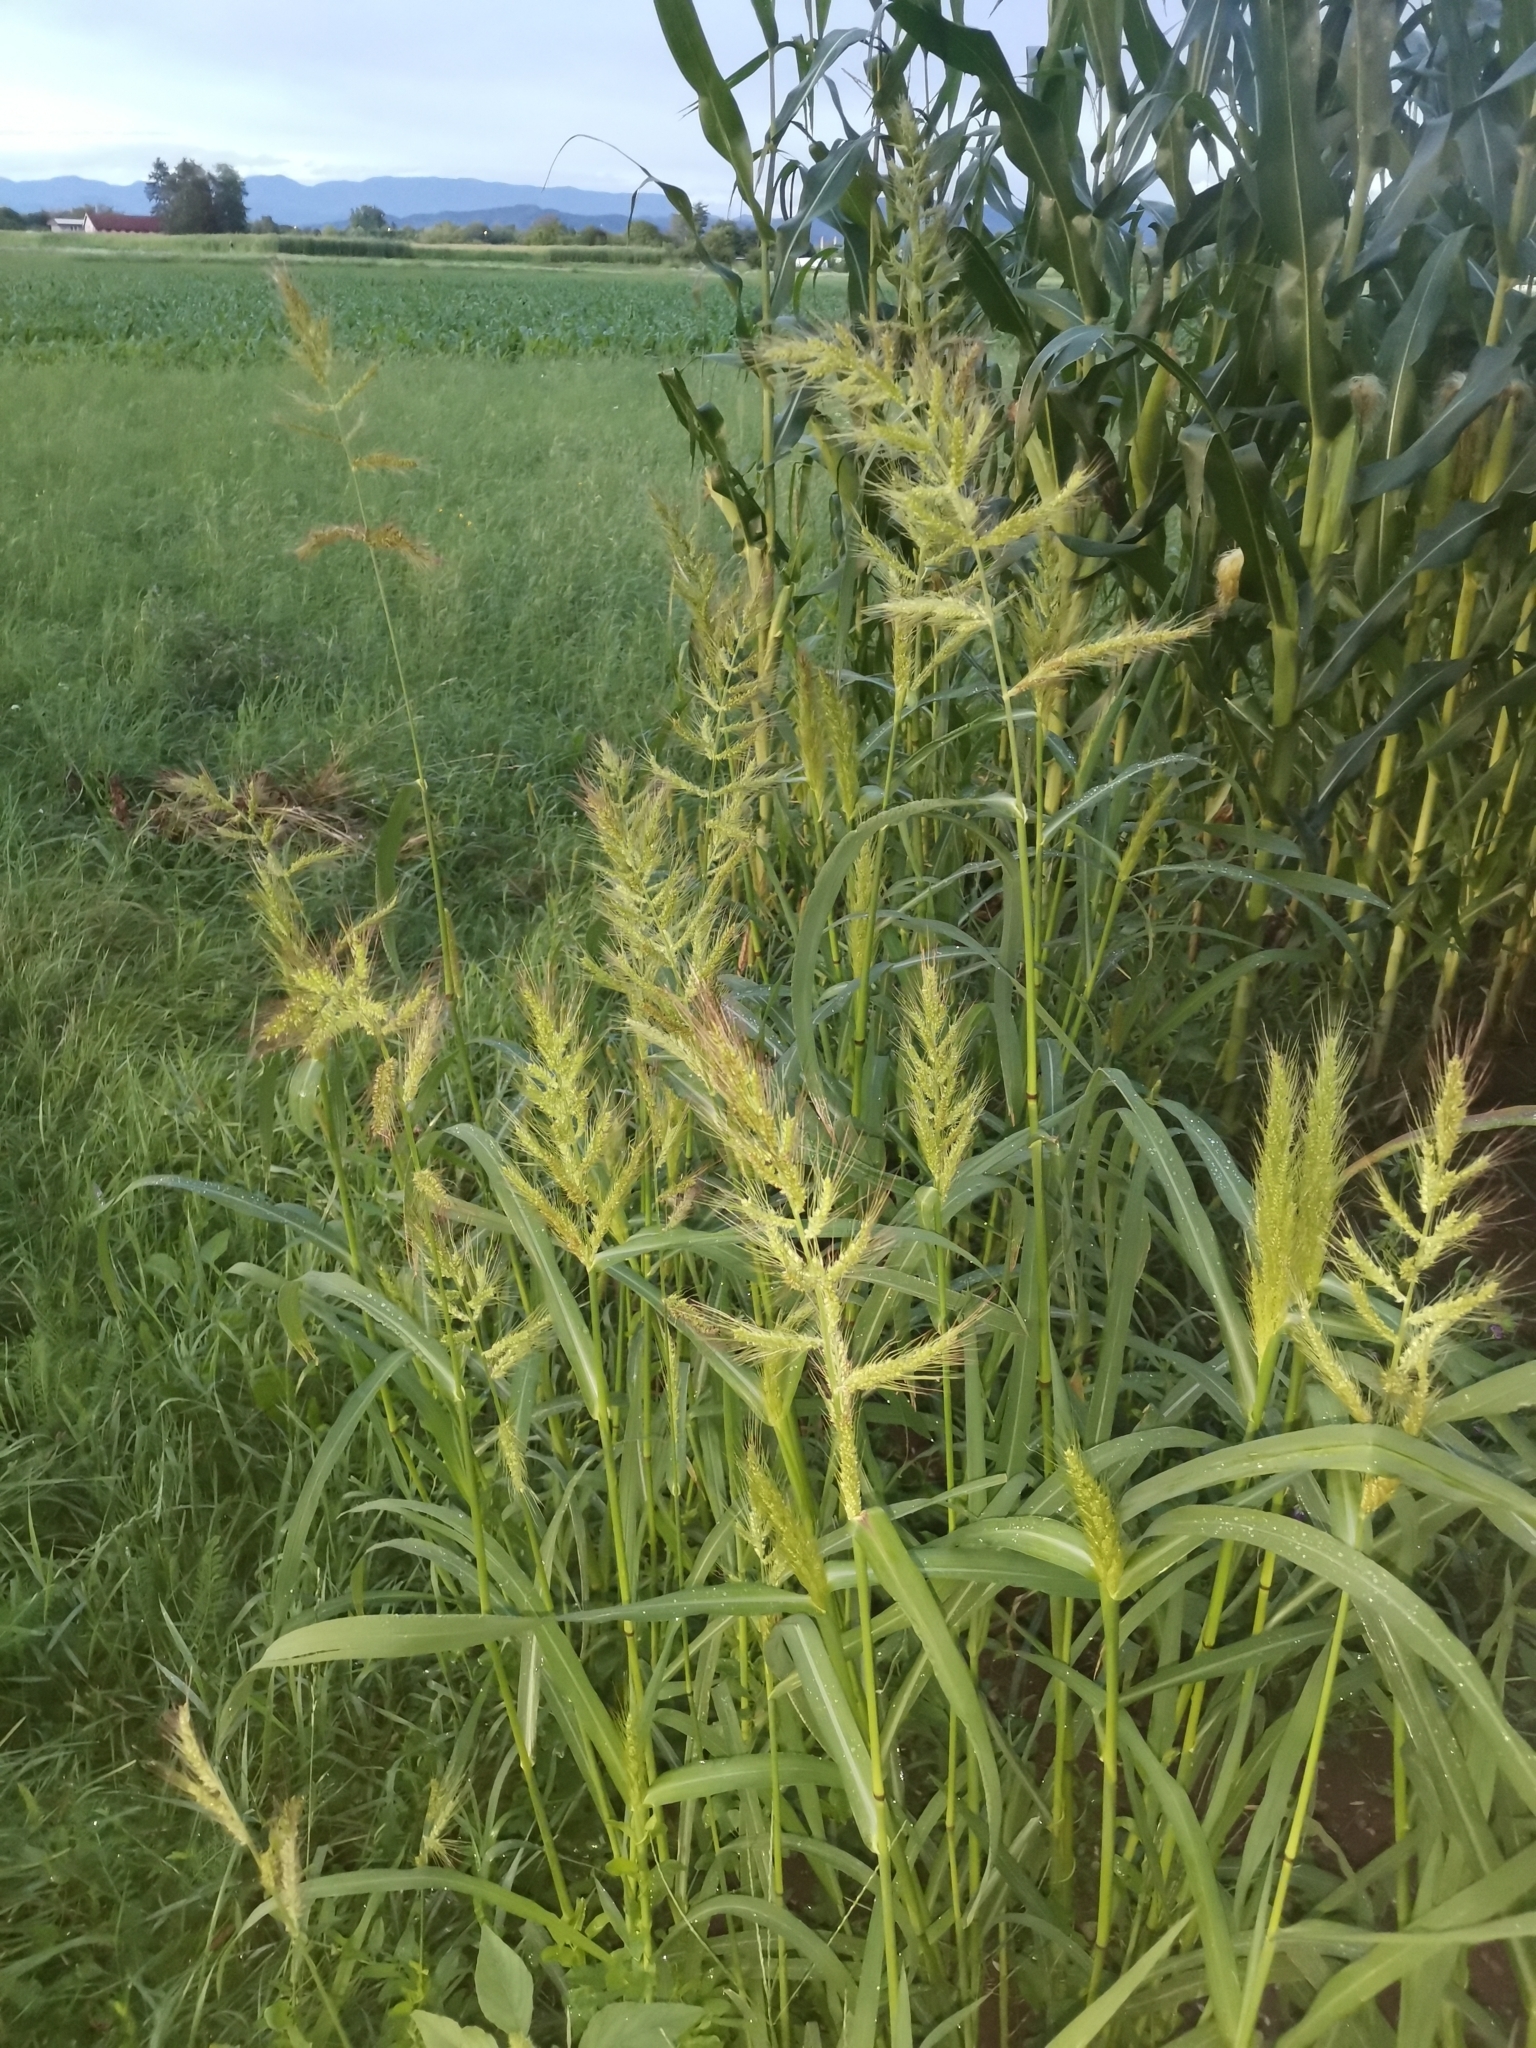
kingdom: Plantae
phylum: Tracheophyta
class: Liliopsida
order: Poales
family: Poaceae
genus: Echinochloa
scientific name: Echinochloa crus-galli
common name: Cockspur
